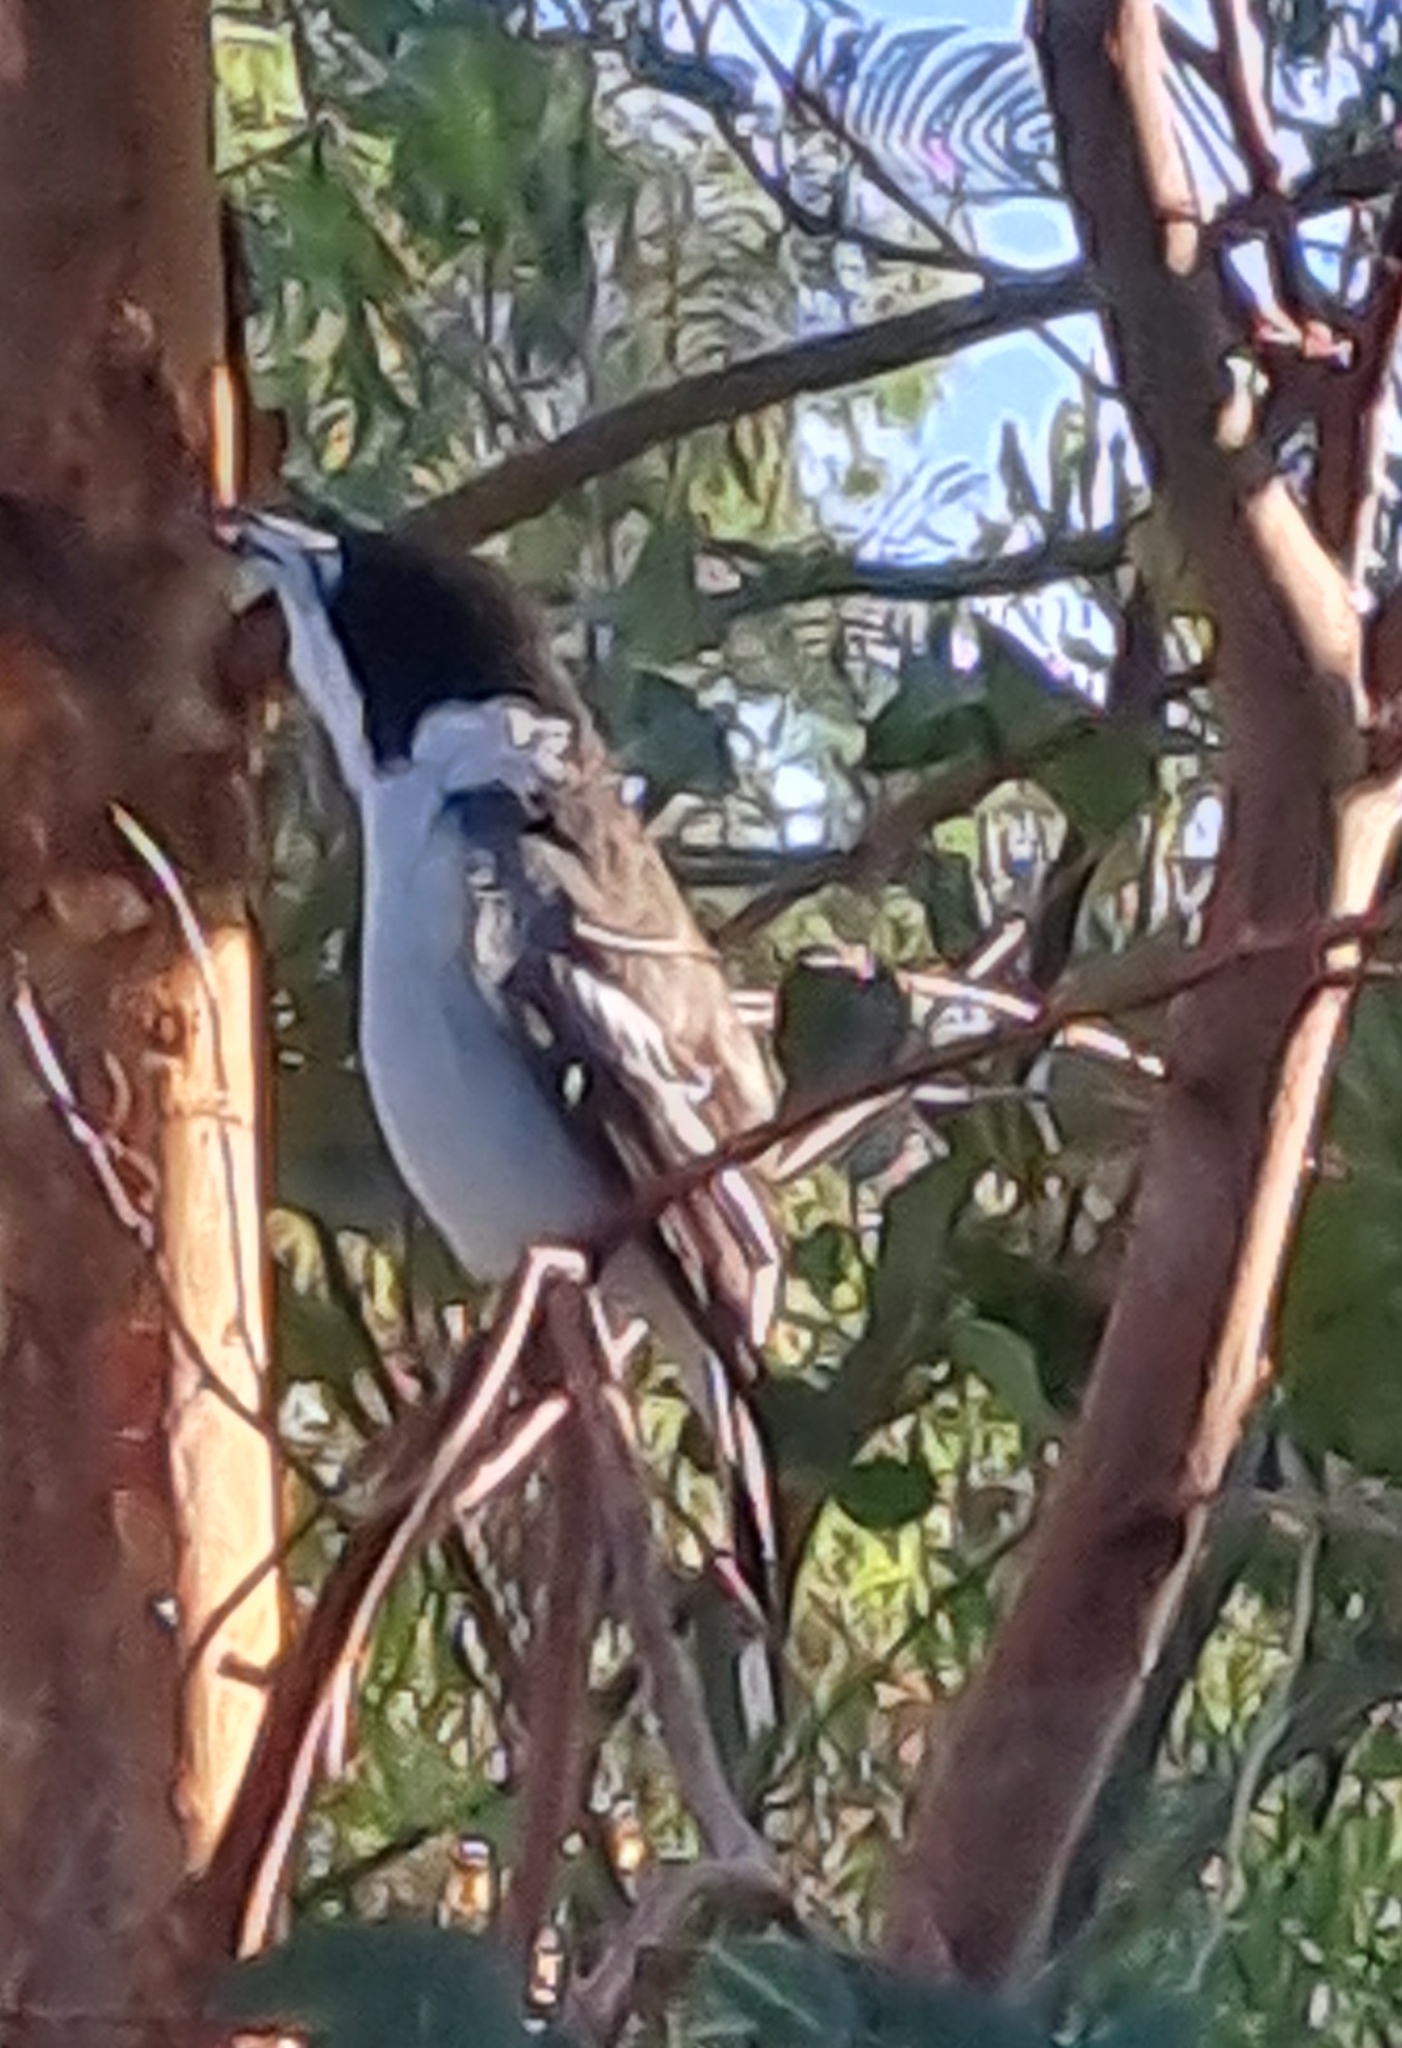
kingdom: Animalia
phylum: Chordata
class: Aves
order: Passeriformes
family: Cracticidae
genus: Cracticus
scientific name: Cracticus torquatus
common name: Grey butcherbird
